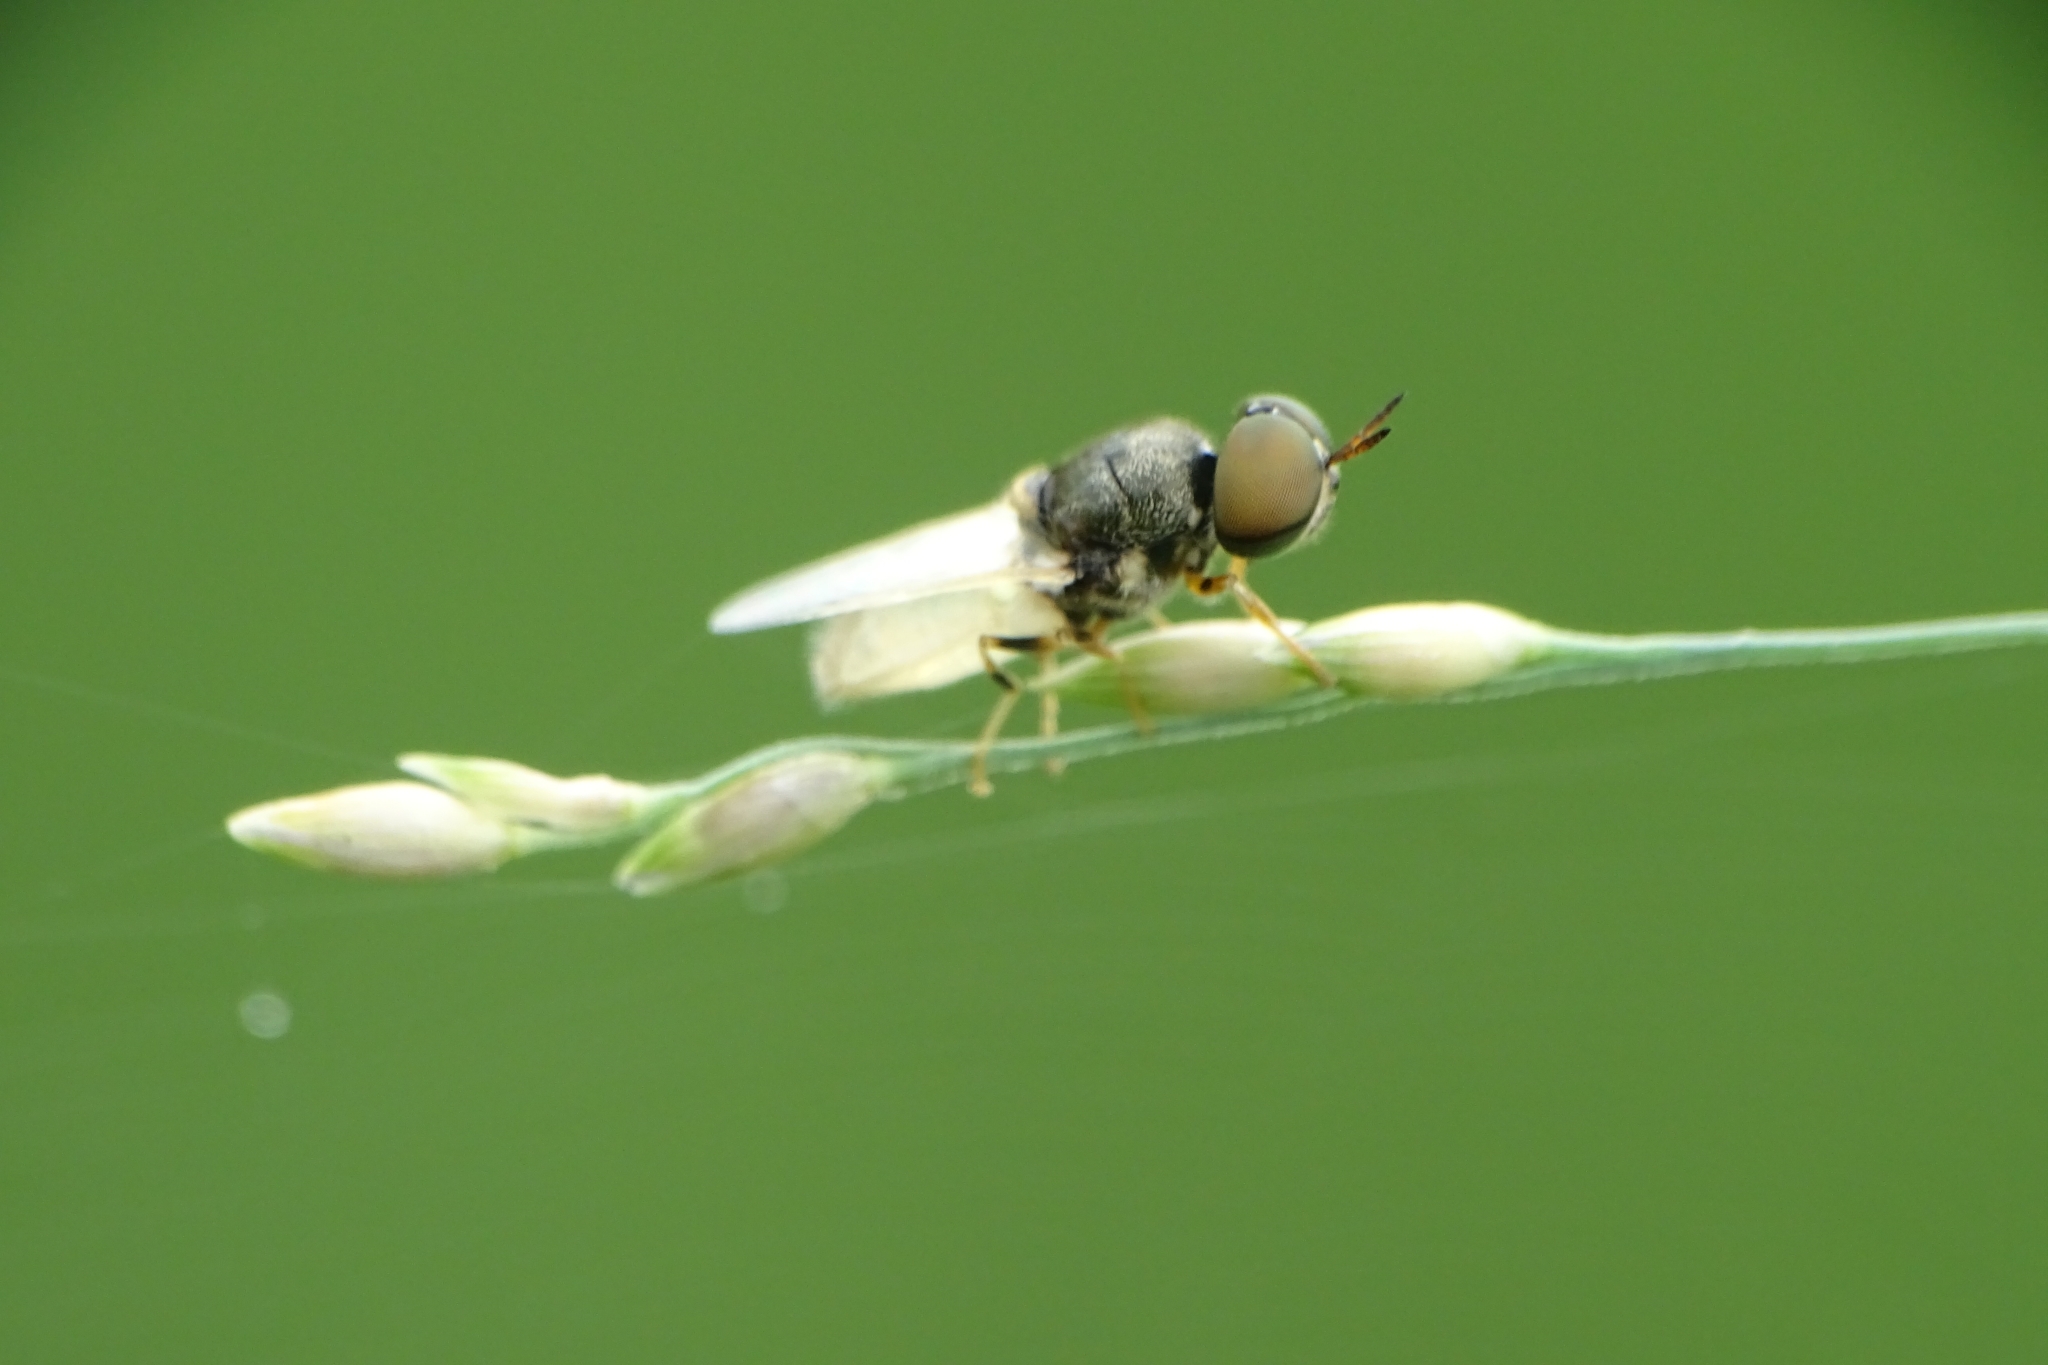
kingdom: Animalia
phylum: Arthropoda
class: Insecta
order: Diptera
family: Stratiomyidae
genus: Oplodontha
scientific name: Oplodontha minuta
